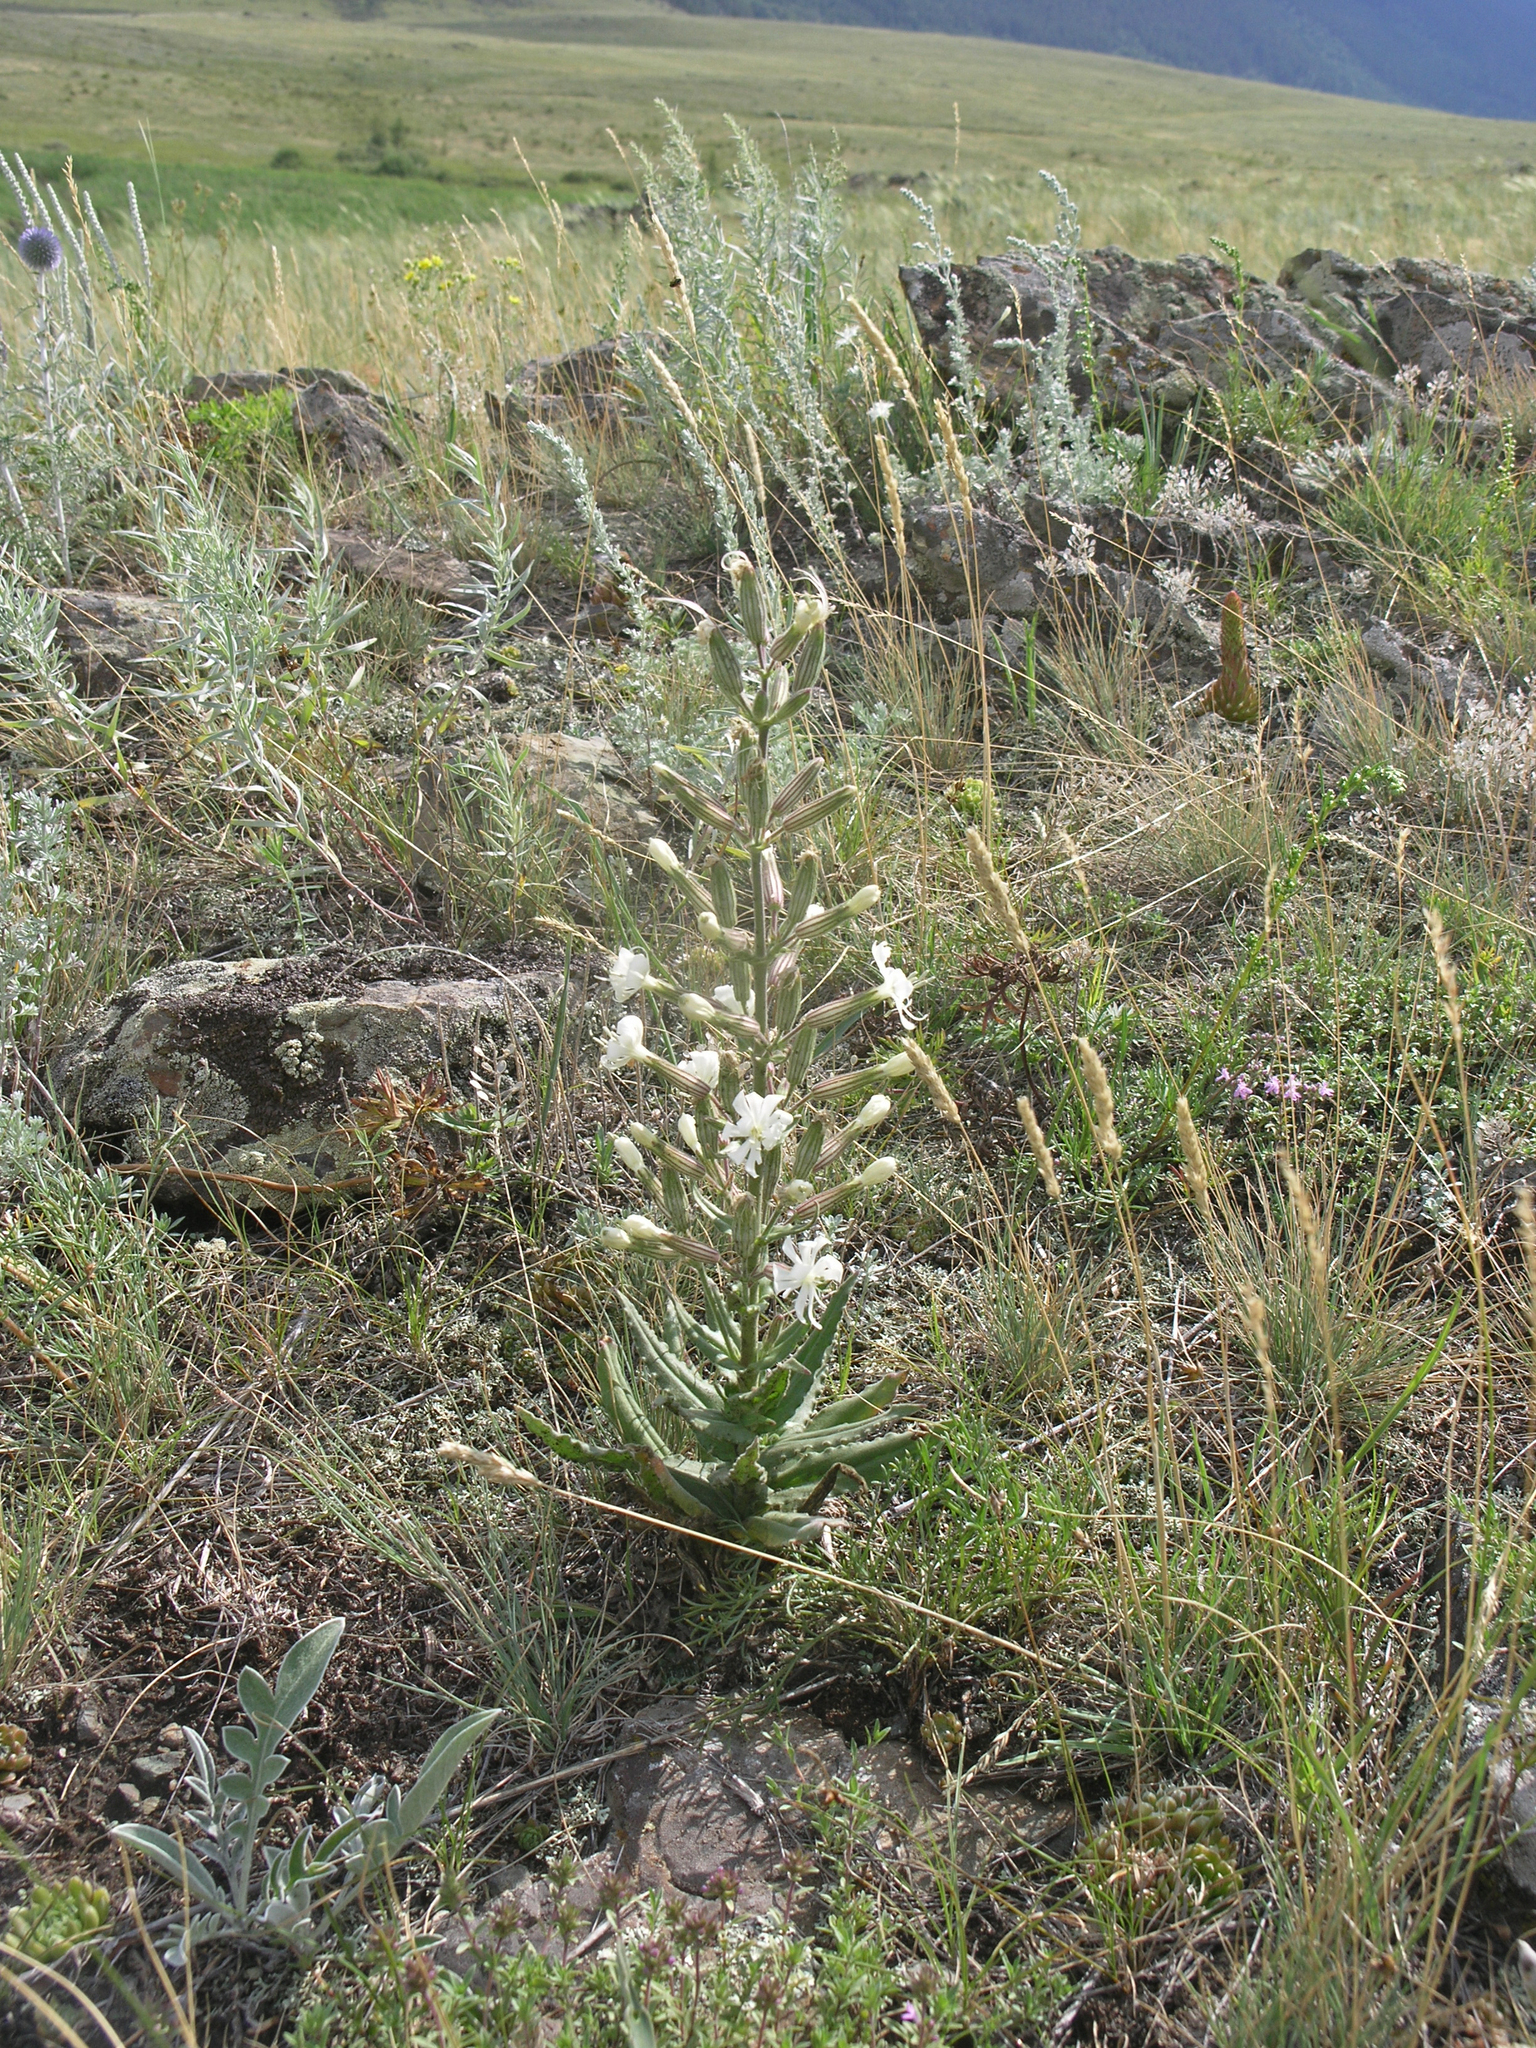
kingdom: Plantae
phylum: Tracheophyta
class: Magnoliopsida
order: Caryophyllales
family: Caryophyllaceae
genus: Silene
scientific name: Silene viscosa
